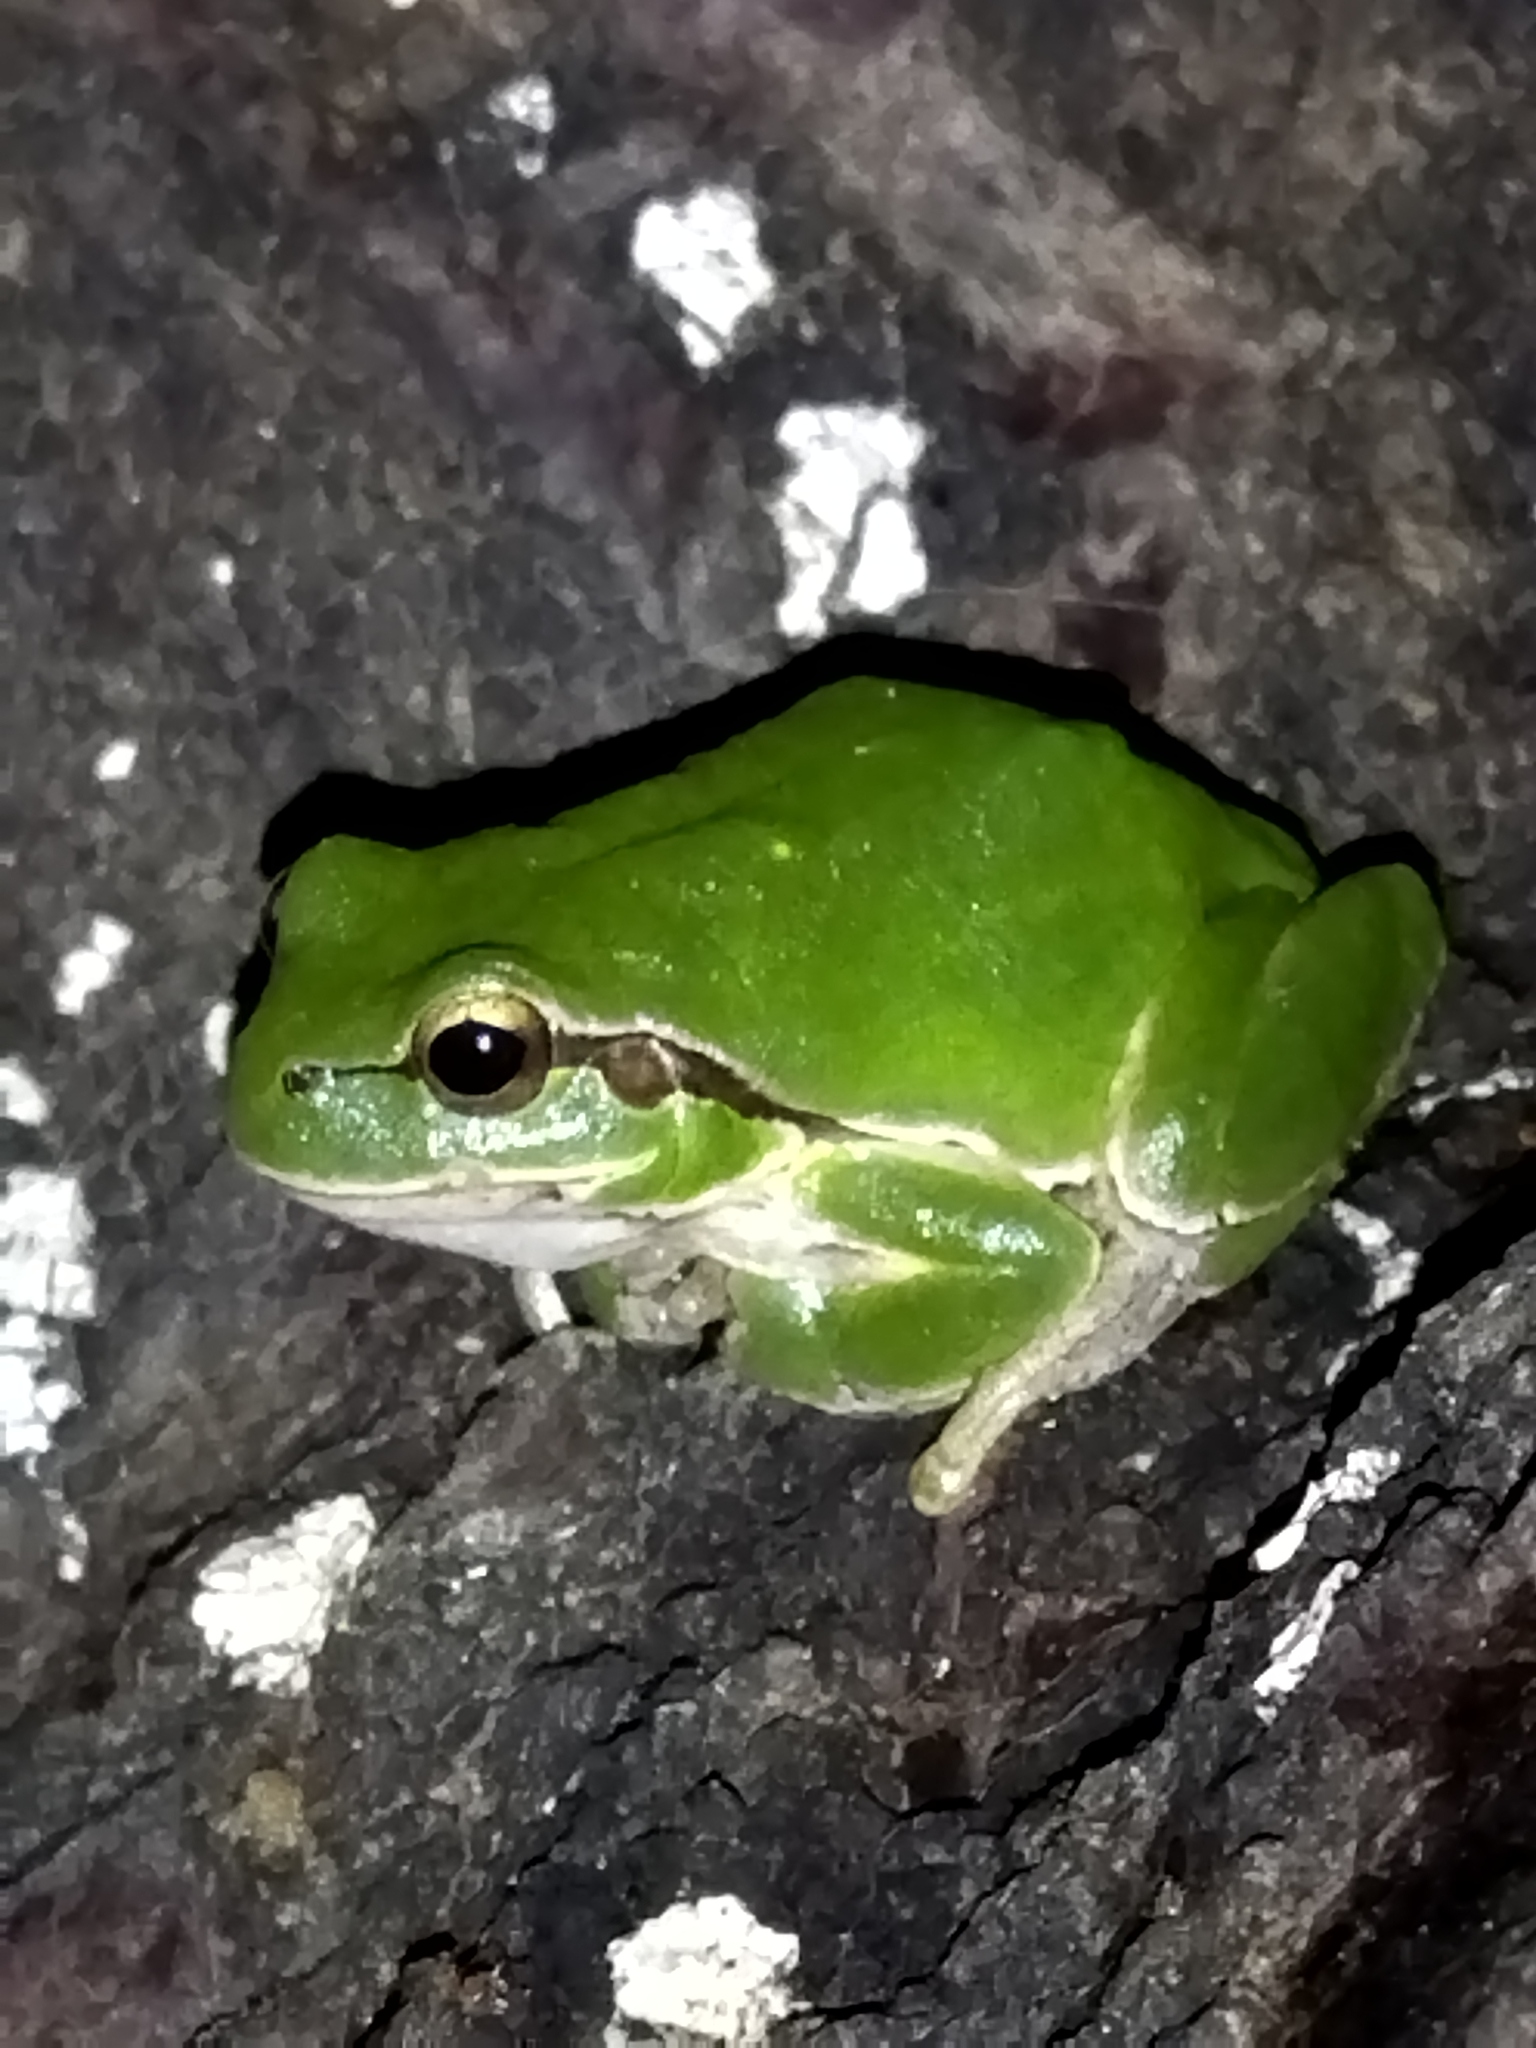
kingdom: Animalia
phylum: Chordata
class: Amphibia
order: Anura
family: Hylidae
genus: Hyla
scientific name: Hyla orientalis
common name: Caucasian treefrog
